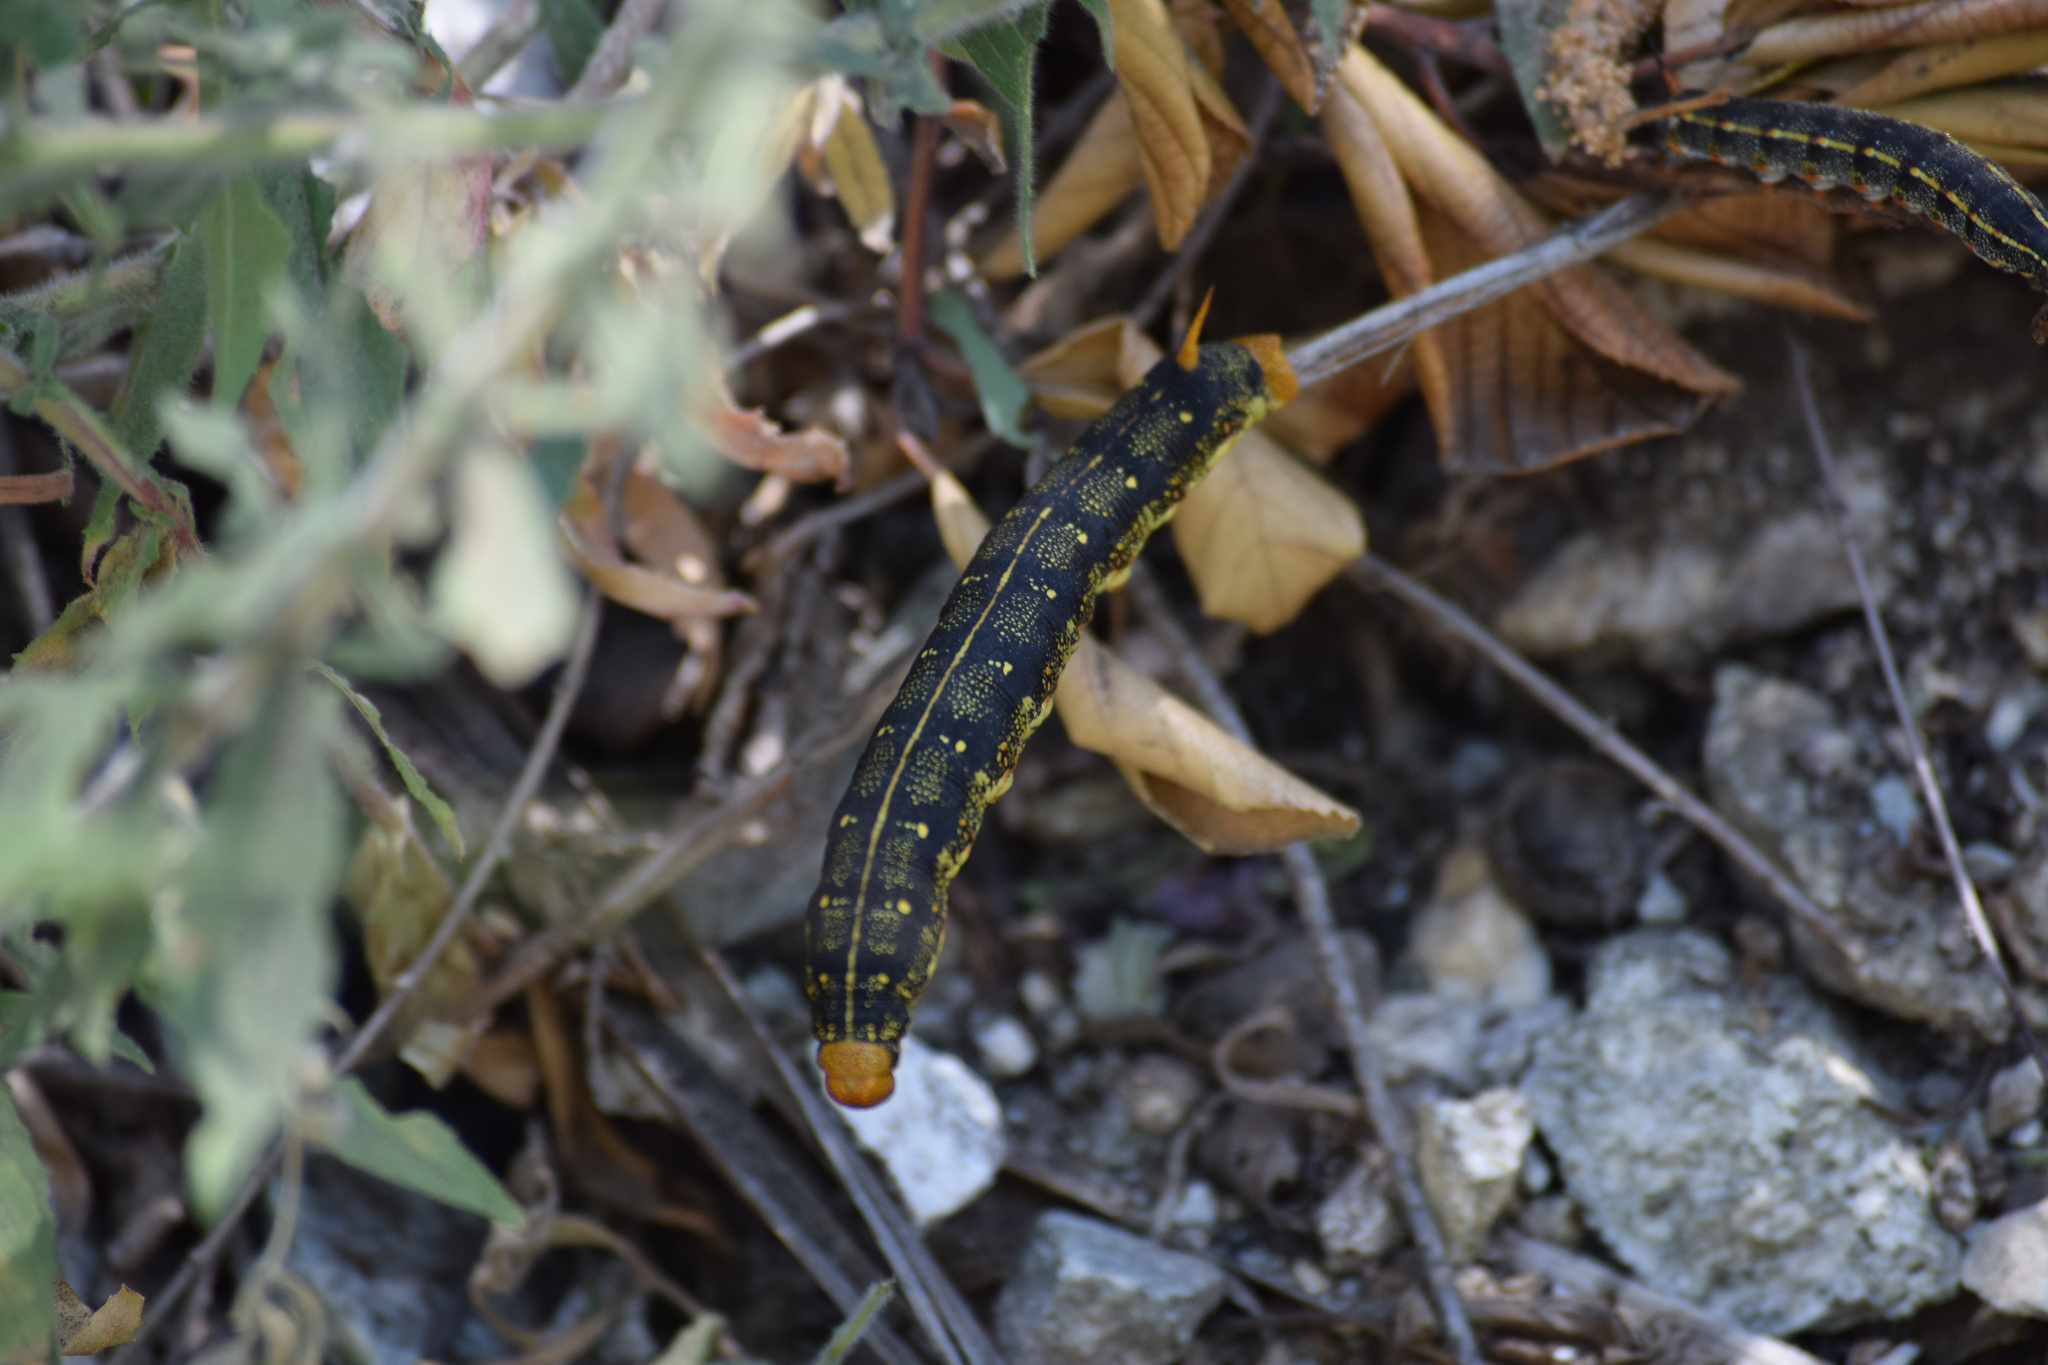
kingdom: Animalia
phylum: Arthropoda
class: Insecta
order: Lepidoptera
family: Sphingidae
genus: Hyles
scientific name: Hyles lineata
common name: White-lined sphinx
